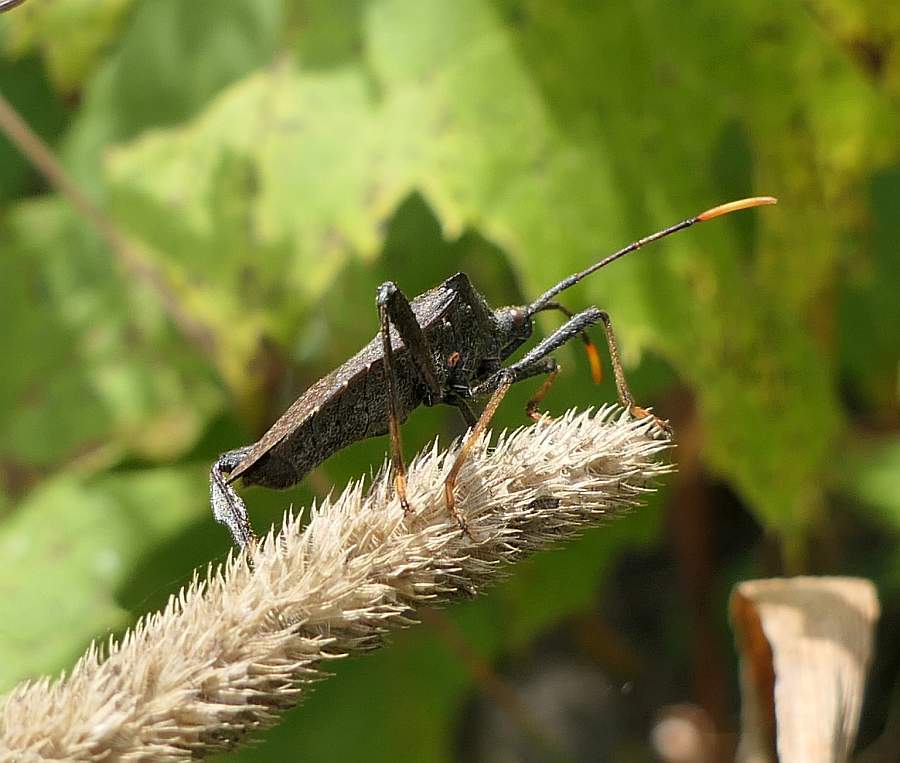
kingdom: Animalia
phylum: Arthropoda
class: Insecta
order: Hemiptera
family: Coreidae
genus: Acanthocephala
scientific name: Acanthocephala terminalis
